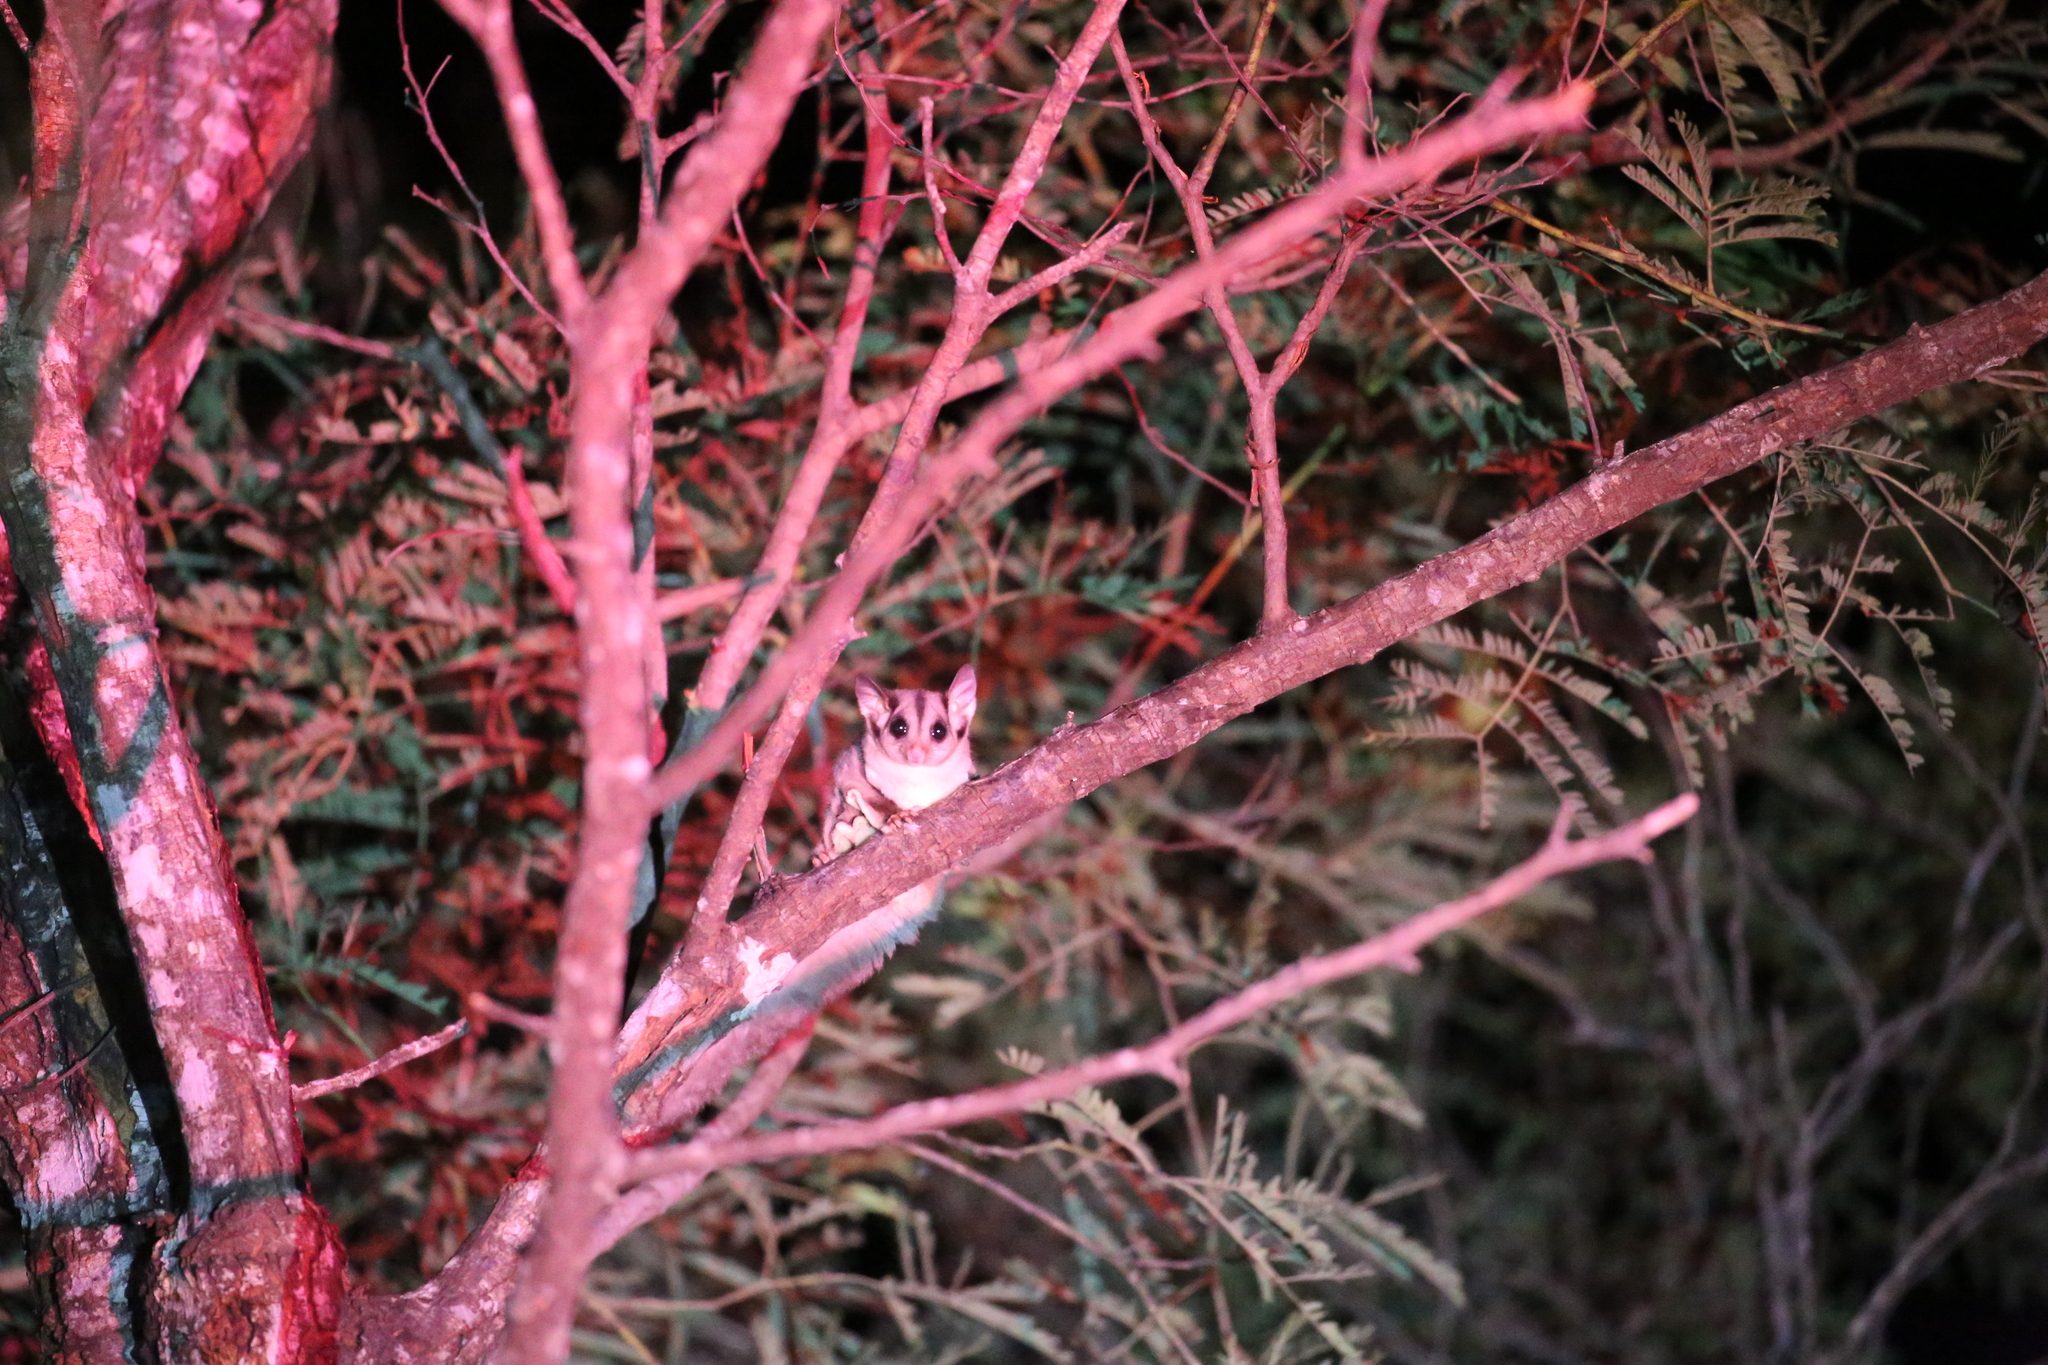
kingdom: Animalia
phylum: Chordata
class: Mammalia
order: Diprotodontia
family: Petauridae
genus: Petaurus
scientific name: Petaurus breviceps
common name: Sugar glider
